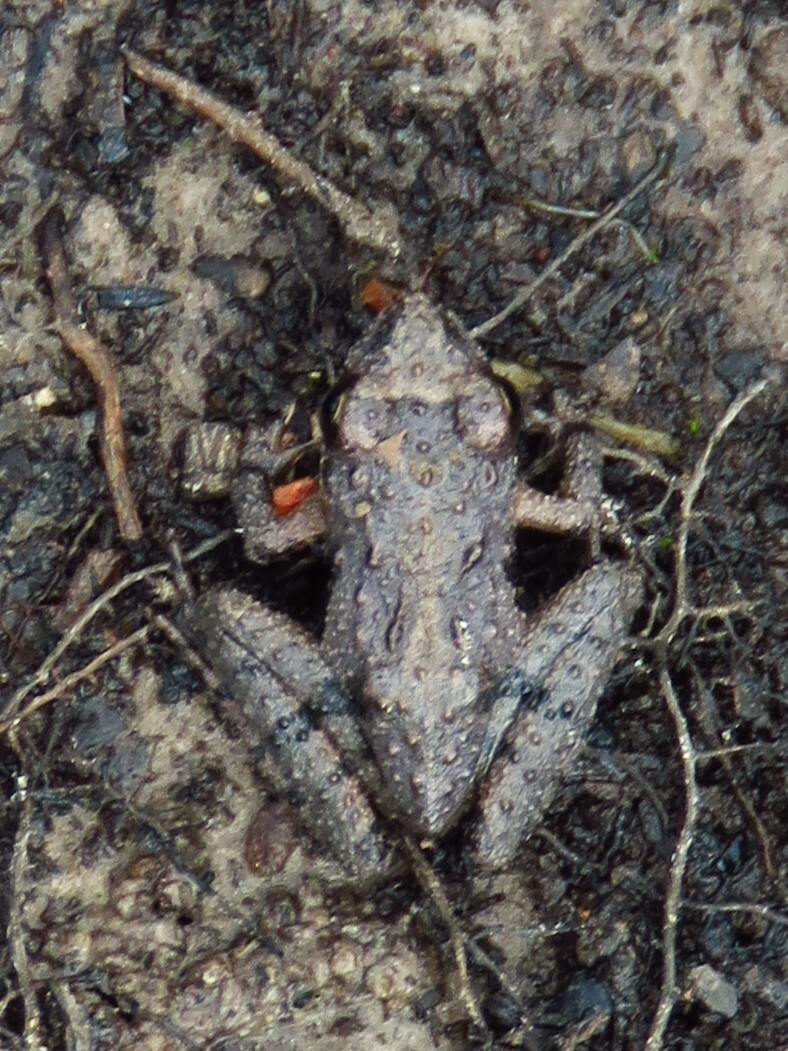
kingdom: Animalia
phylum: Chordata
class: Amphibia
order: Anura
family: Hylidae
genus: Acris
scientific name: Acris blanchardi
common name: Blanchard's cricket frog
